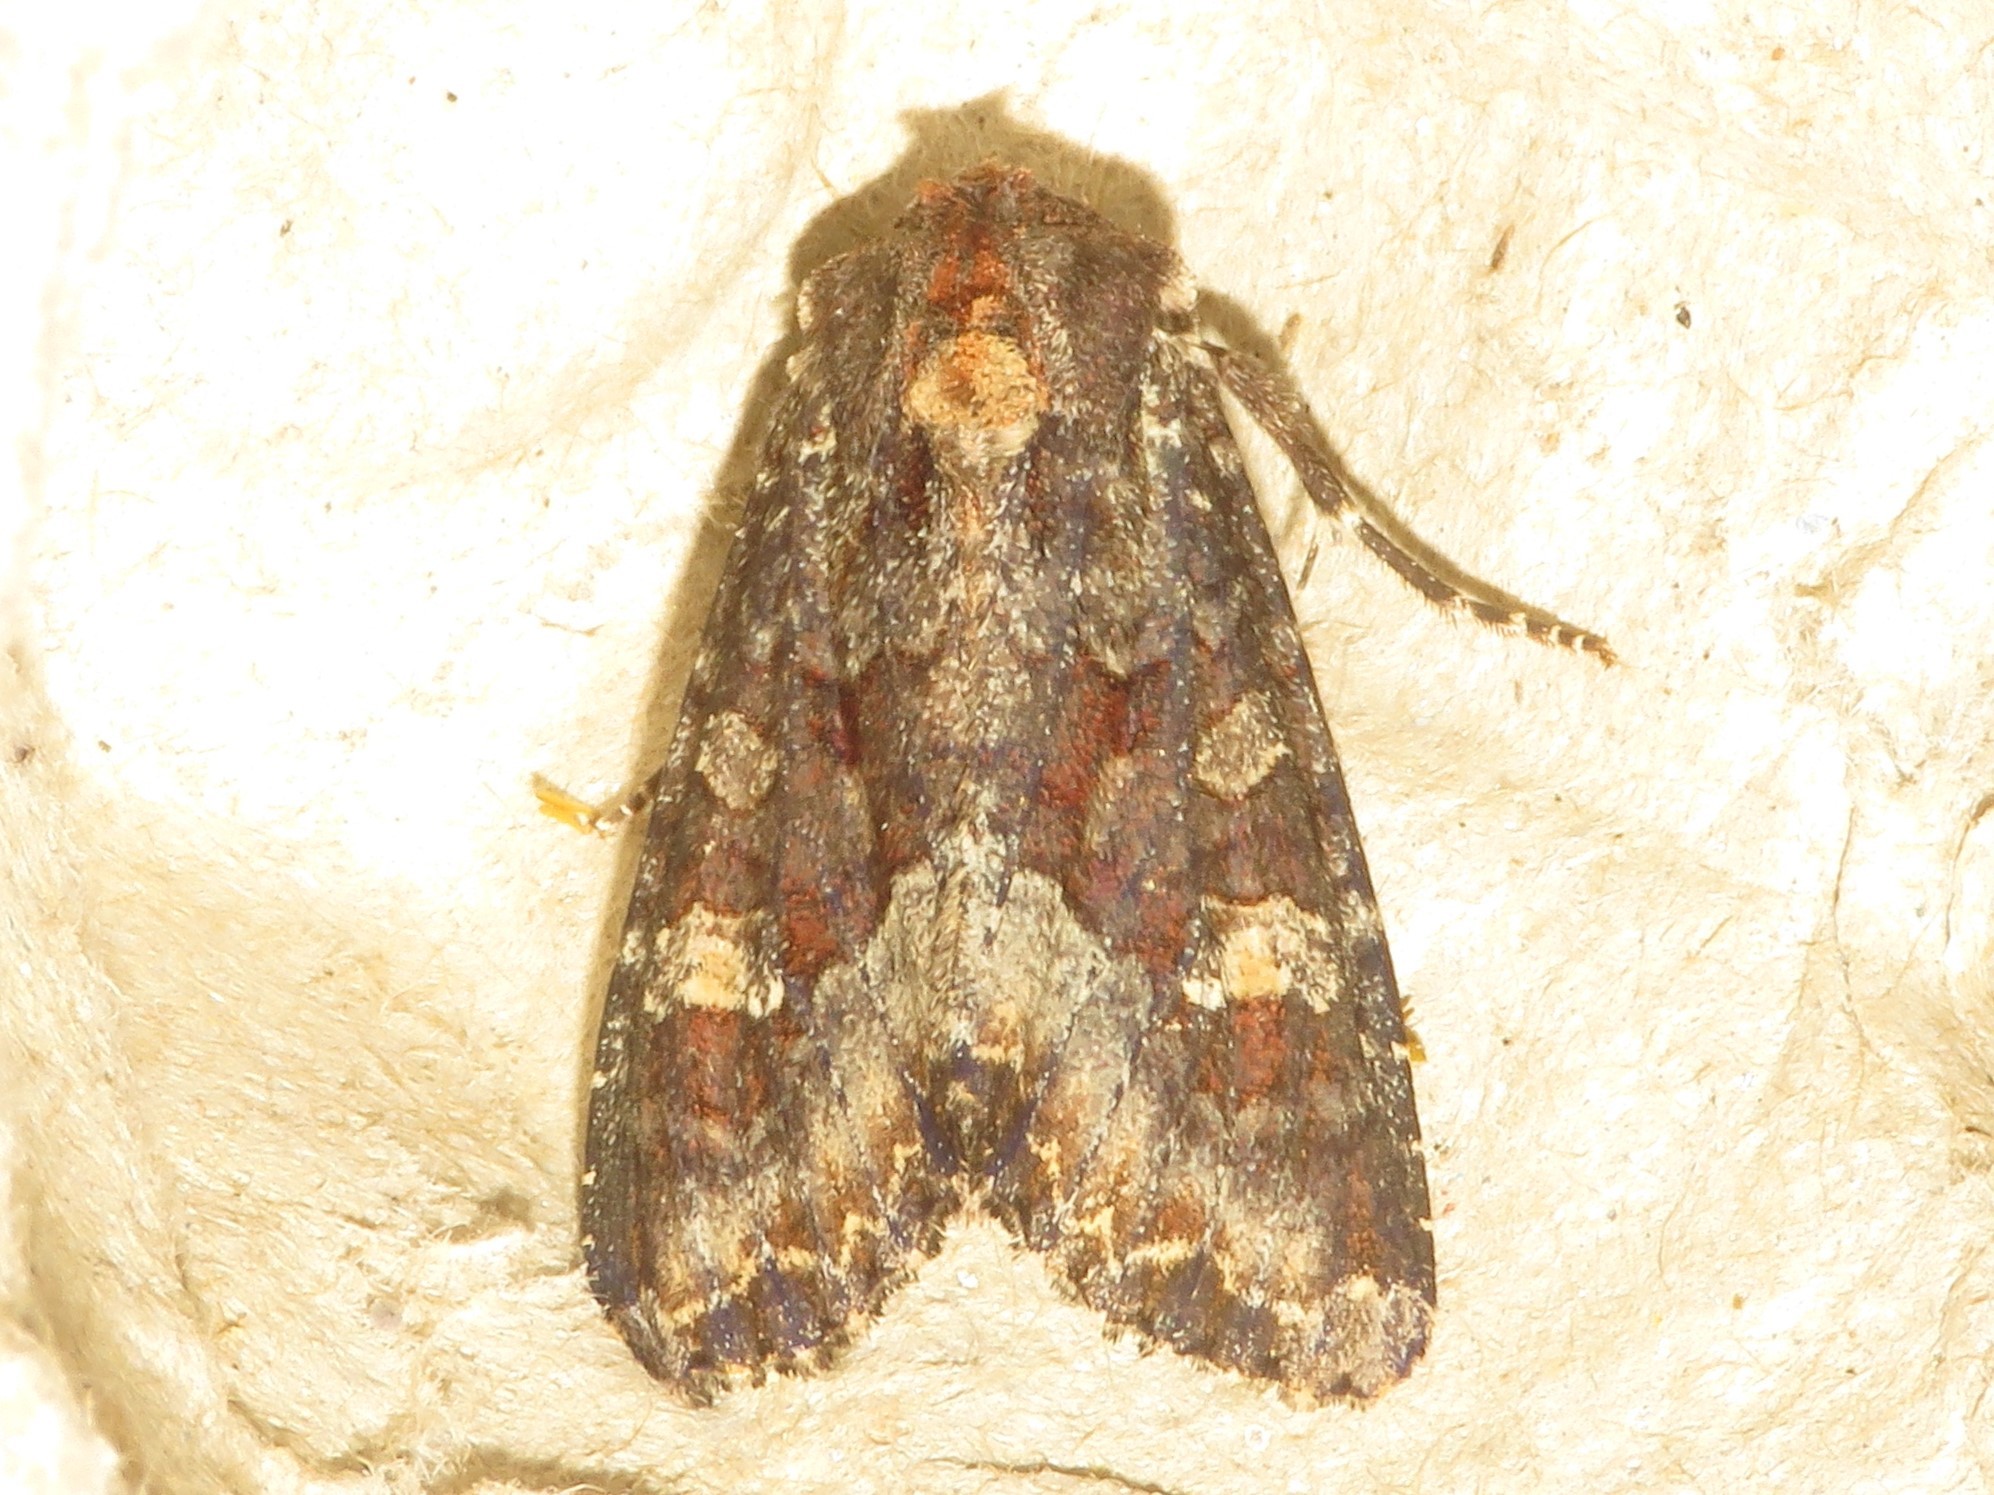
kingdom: Animalia
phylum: Arthropoda
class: Insecta
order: Lepidoptera
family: Noctuidae
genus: Apamea
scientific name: Apamea amputatrix
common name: Yellow-headed cutworm moth
